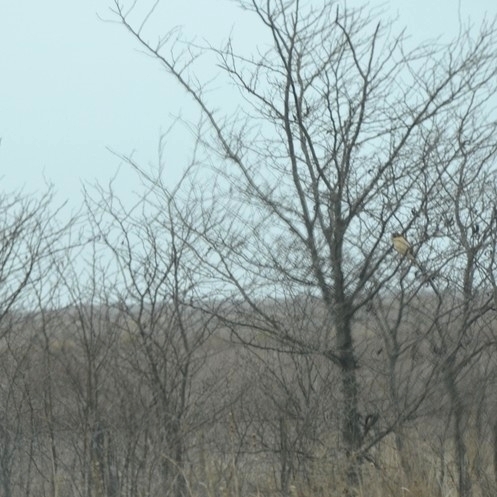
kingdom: Animalia
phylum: Chordata
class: Aves
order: Accipitriformes
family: Accipitridae
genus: Rupornis
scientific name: Rupornis magnirostris
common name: Roadside hawk
